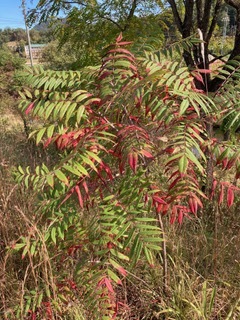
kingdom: Plantae
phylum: Tracheophyta
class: Magnoliopsida
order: Sapindales
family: Anacardiaceae
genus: Rhus
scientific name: Rhus glabra
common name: Scarlet sumac
